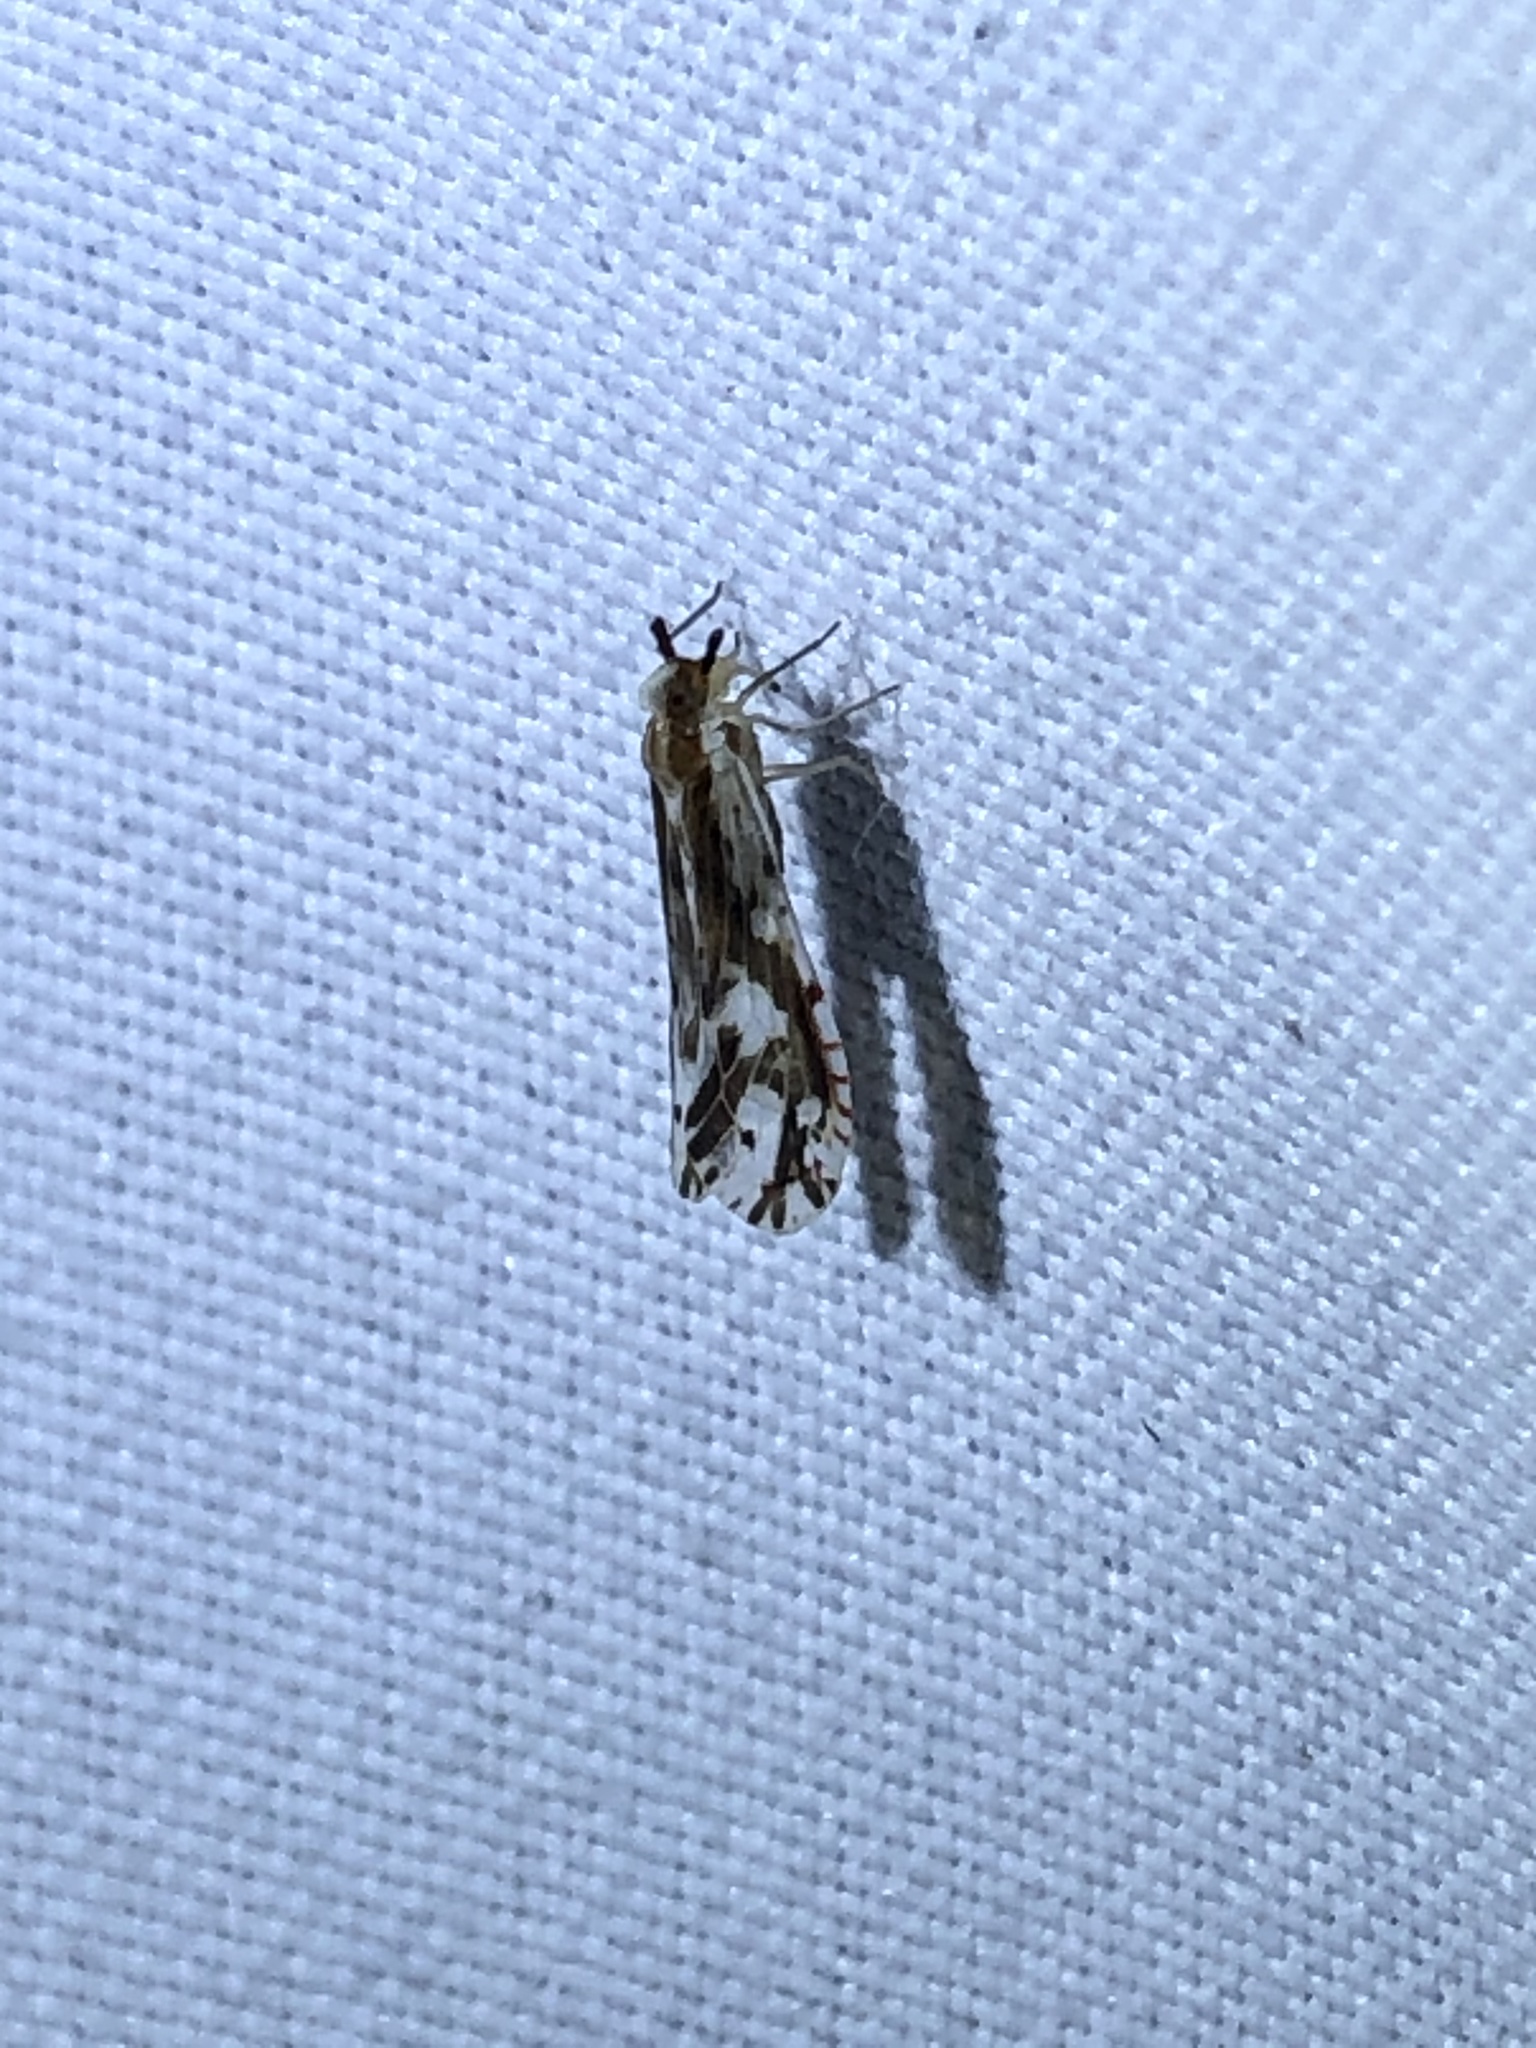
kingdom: Animalia
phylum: Arthropoda
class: Insecta
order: Hemiptera
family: Derbidae
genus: Anotia
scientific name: Anotia fitchi
